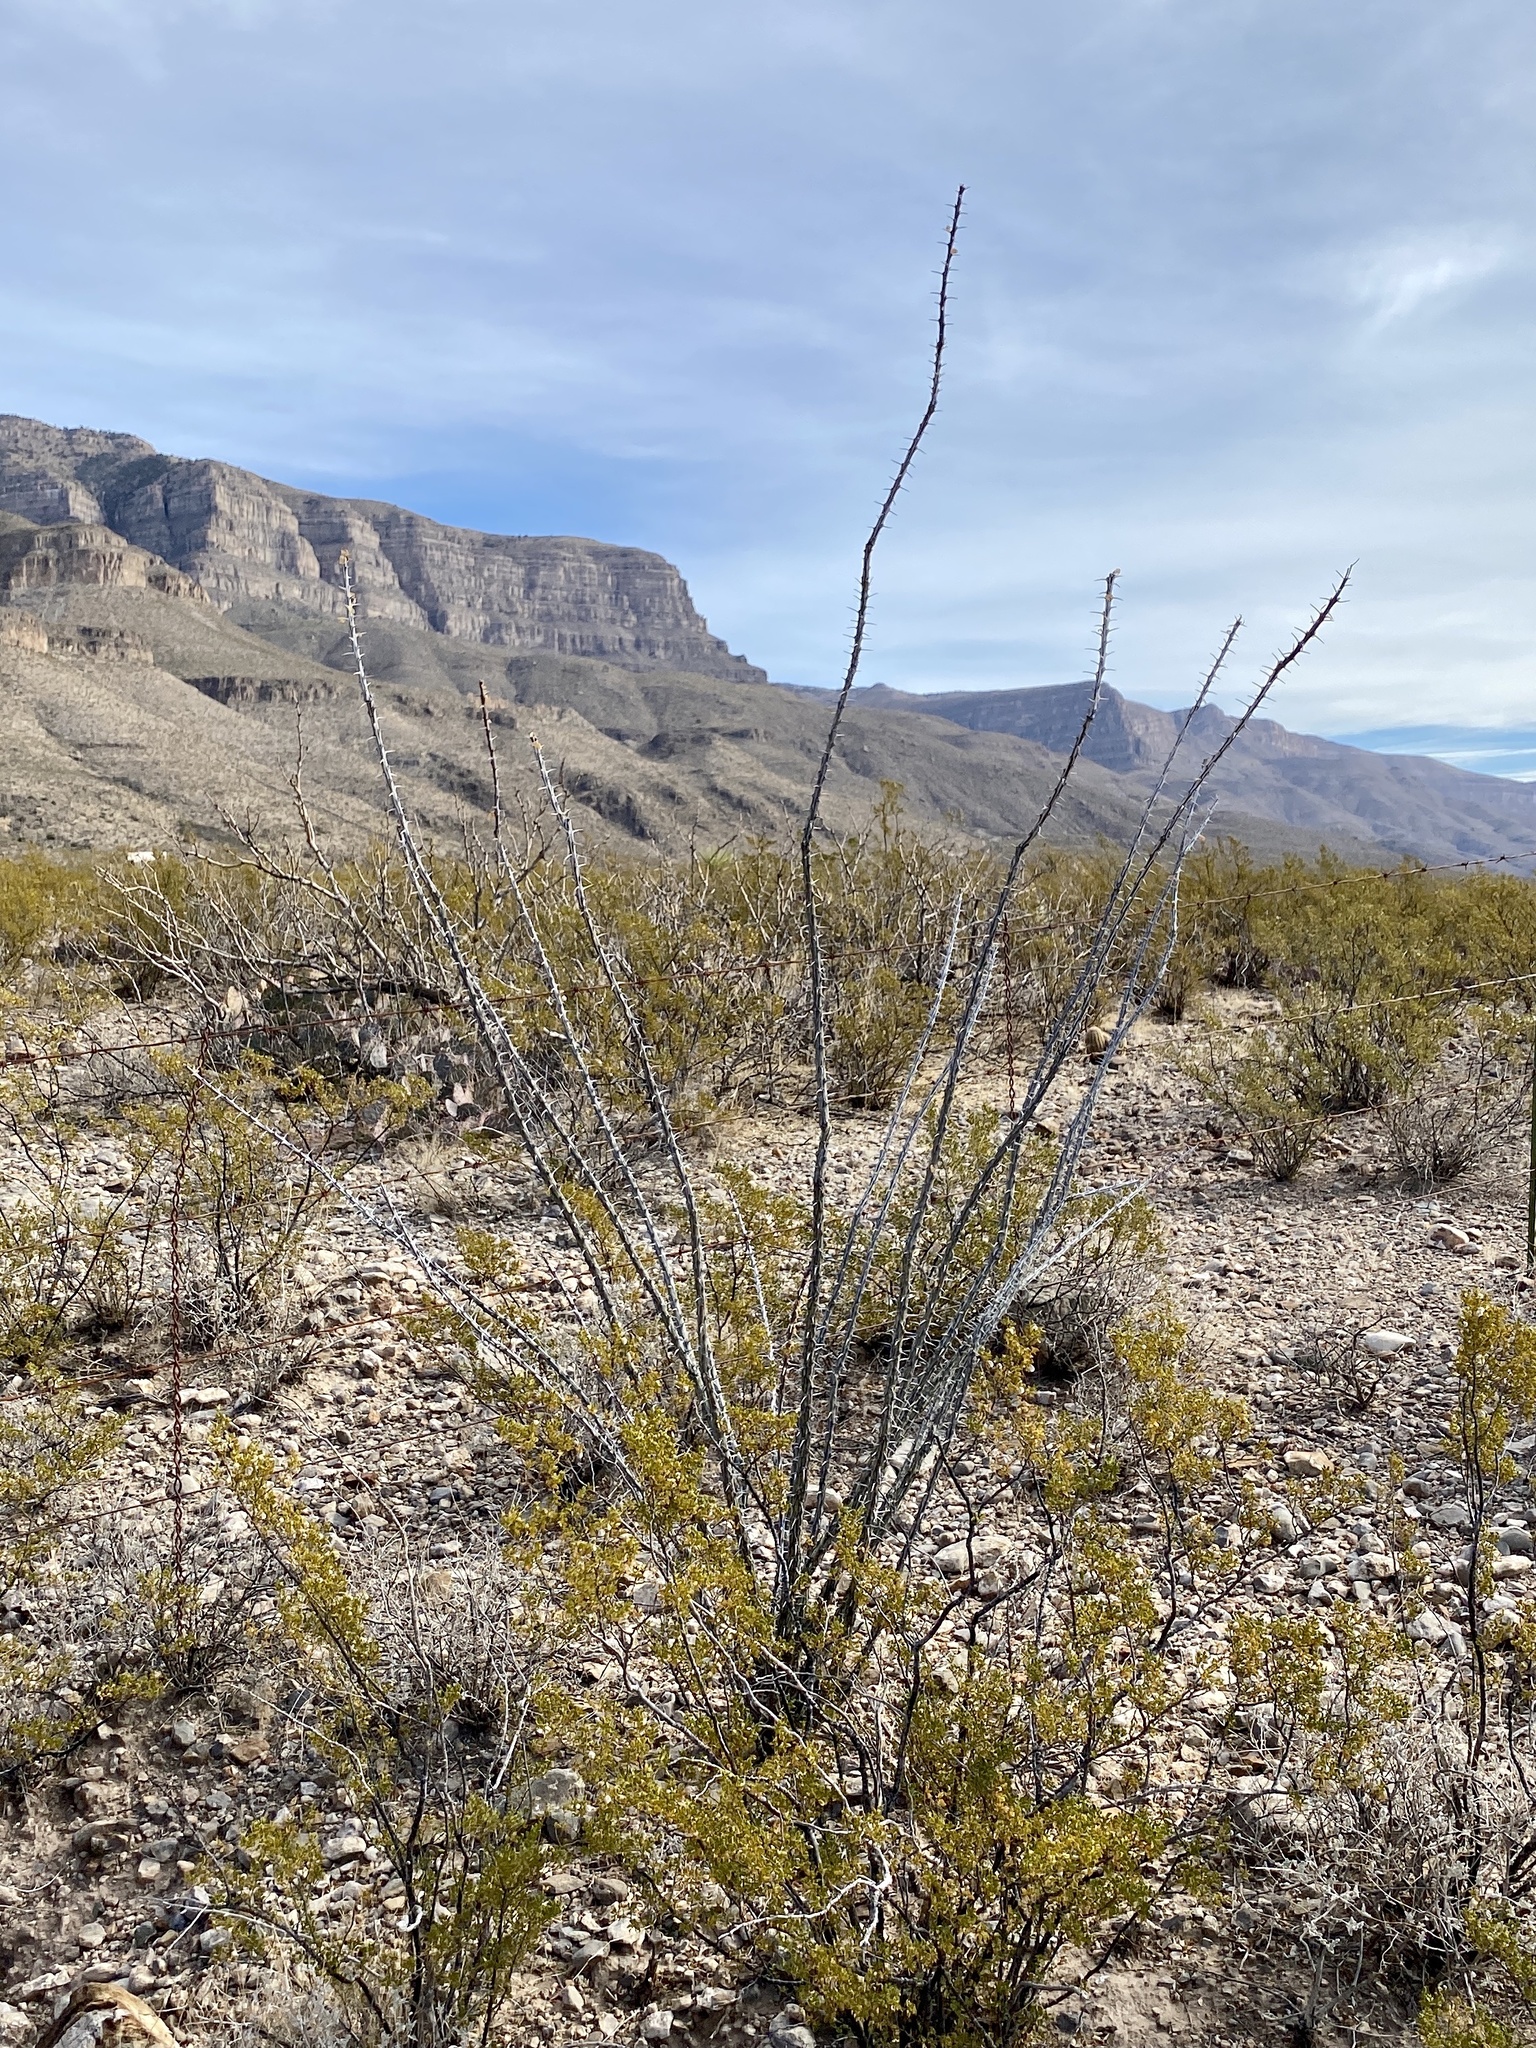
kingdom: Plantae
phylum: Tracheophyta
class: Magnoliopsida
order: Ericales
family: Fouquieriaceae
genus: Fouquieria
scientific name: Fouquieria splendens
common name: Vine-cactus
